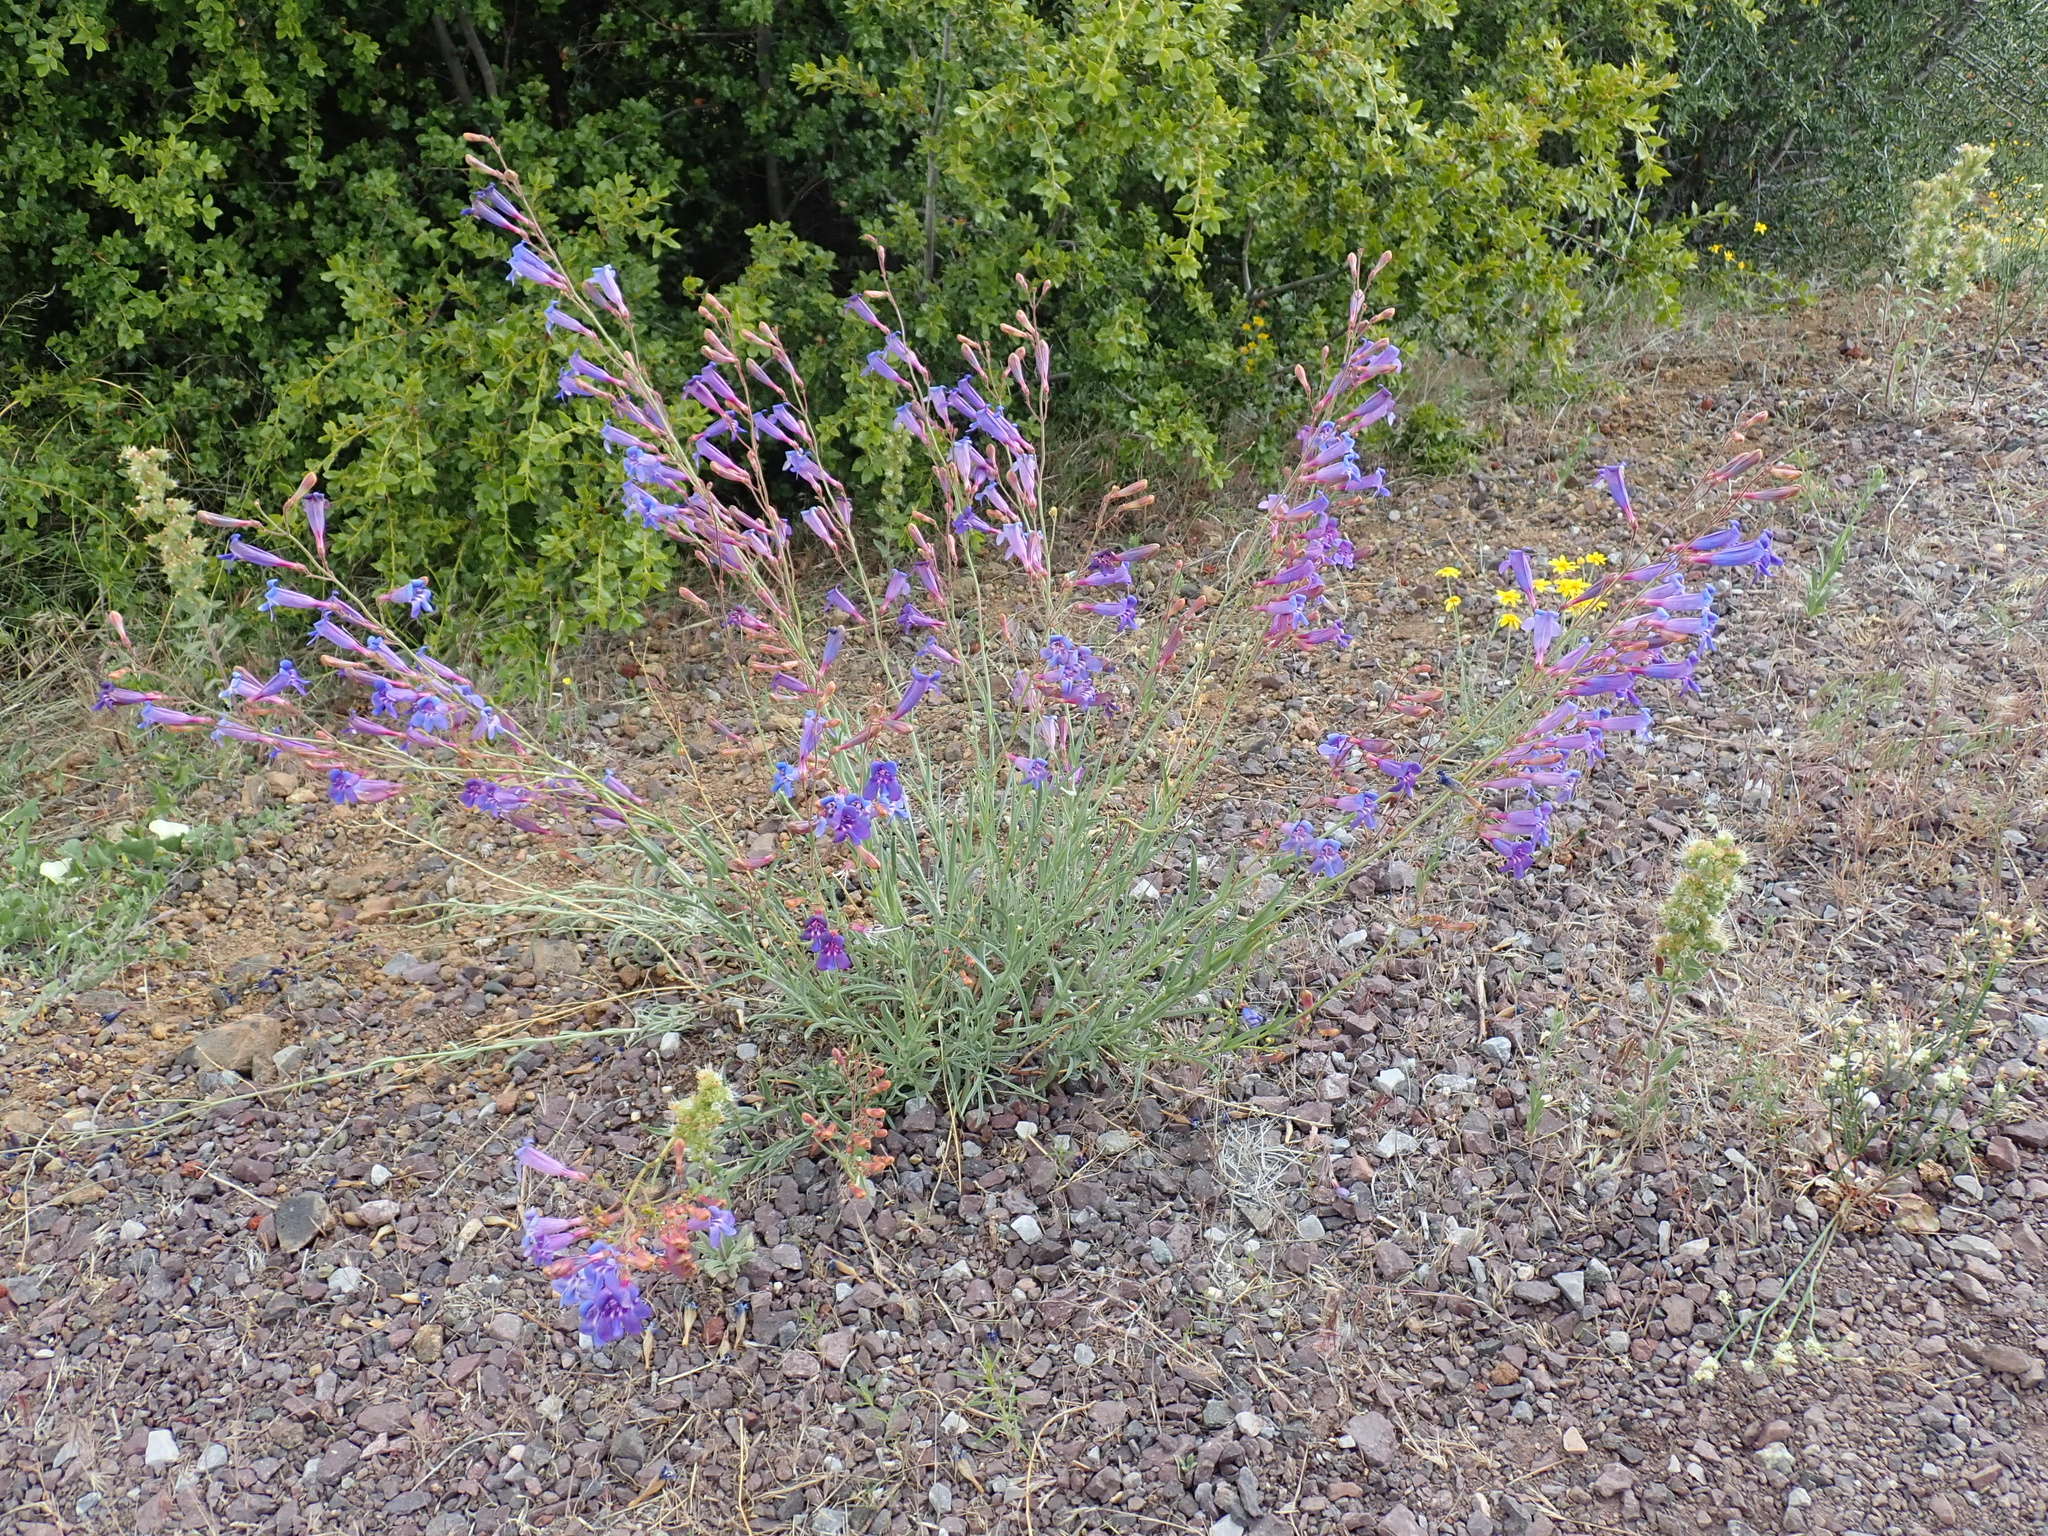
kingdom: Plantae
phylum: Tracheophyta
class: Magnoliopsida
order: Lamiales
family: Plantaginaceae
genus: Penstemon
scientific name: Penstemon azureus
